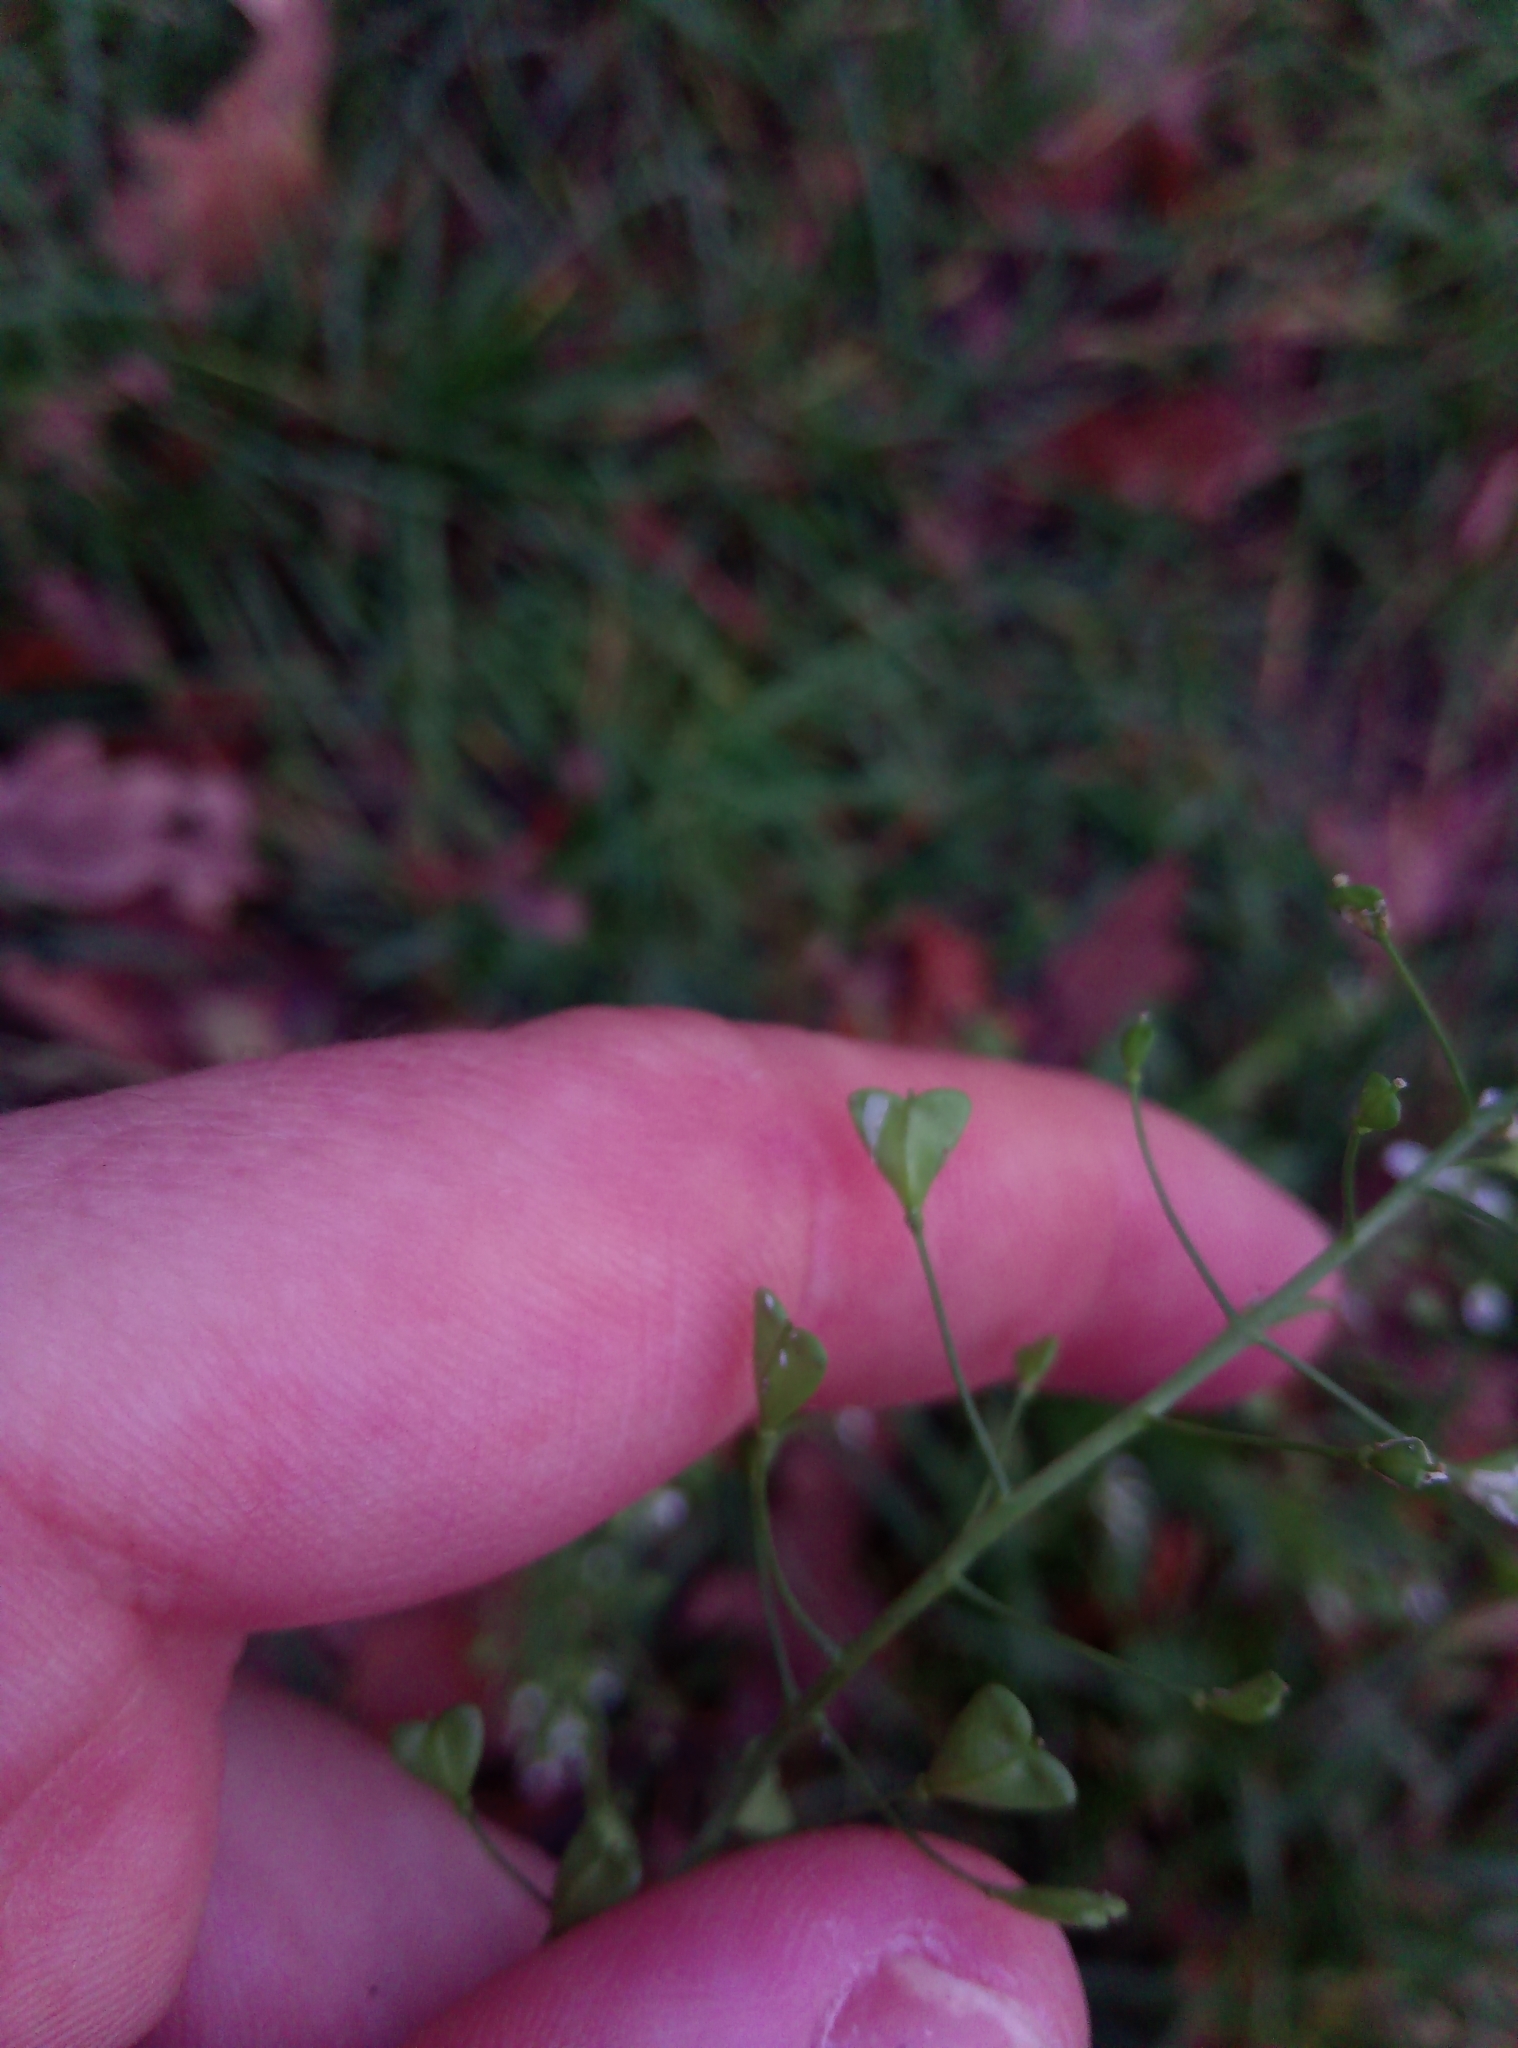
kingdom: Plantae
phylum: Tracheophyta
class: Magnoliopsida
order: Brassicales
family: Brassicaceae
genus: Capsella
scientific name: Capsella bursa-pastoris
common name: Shepherd's purse
